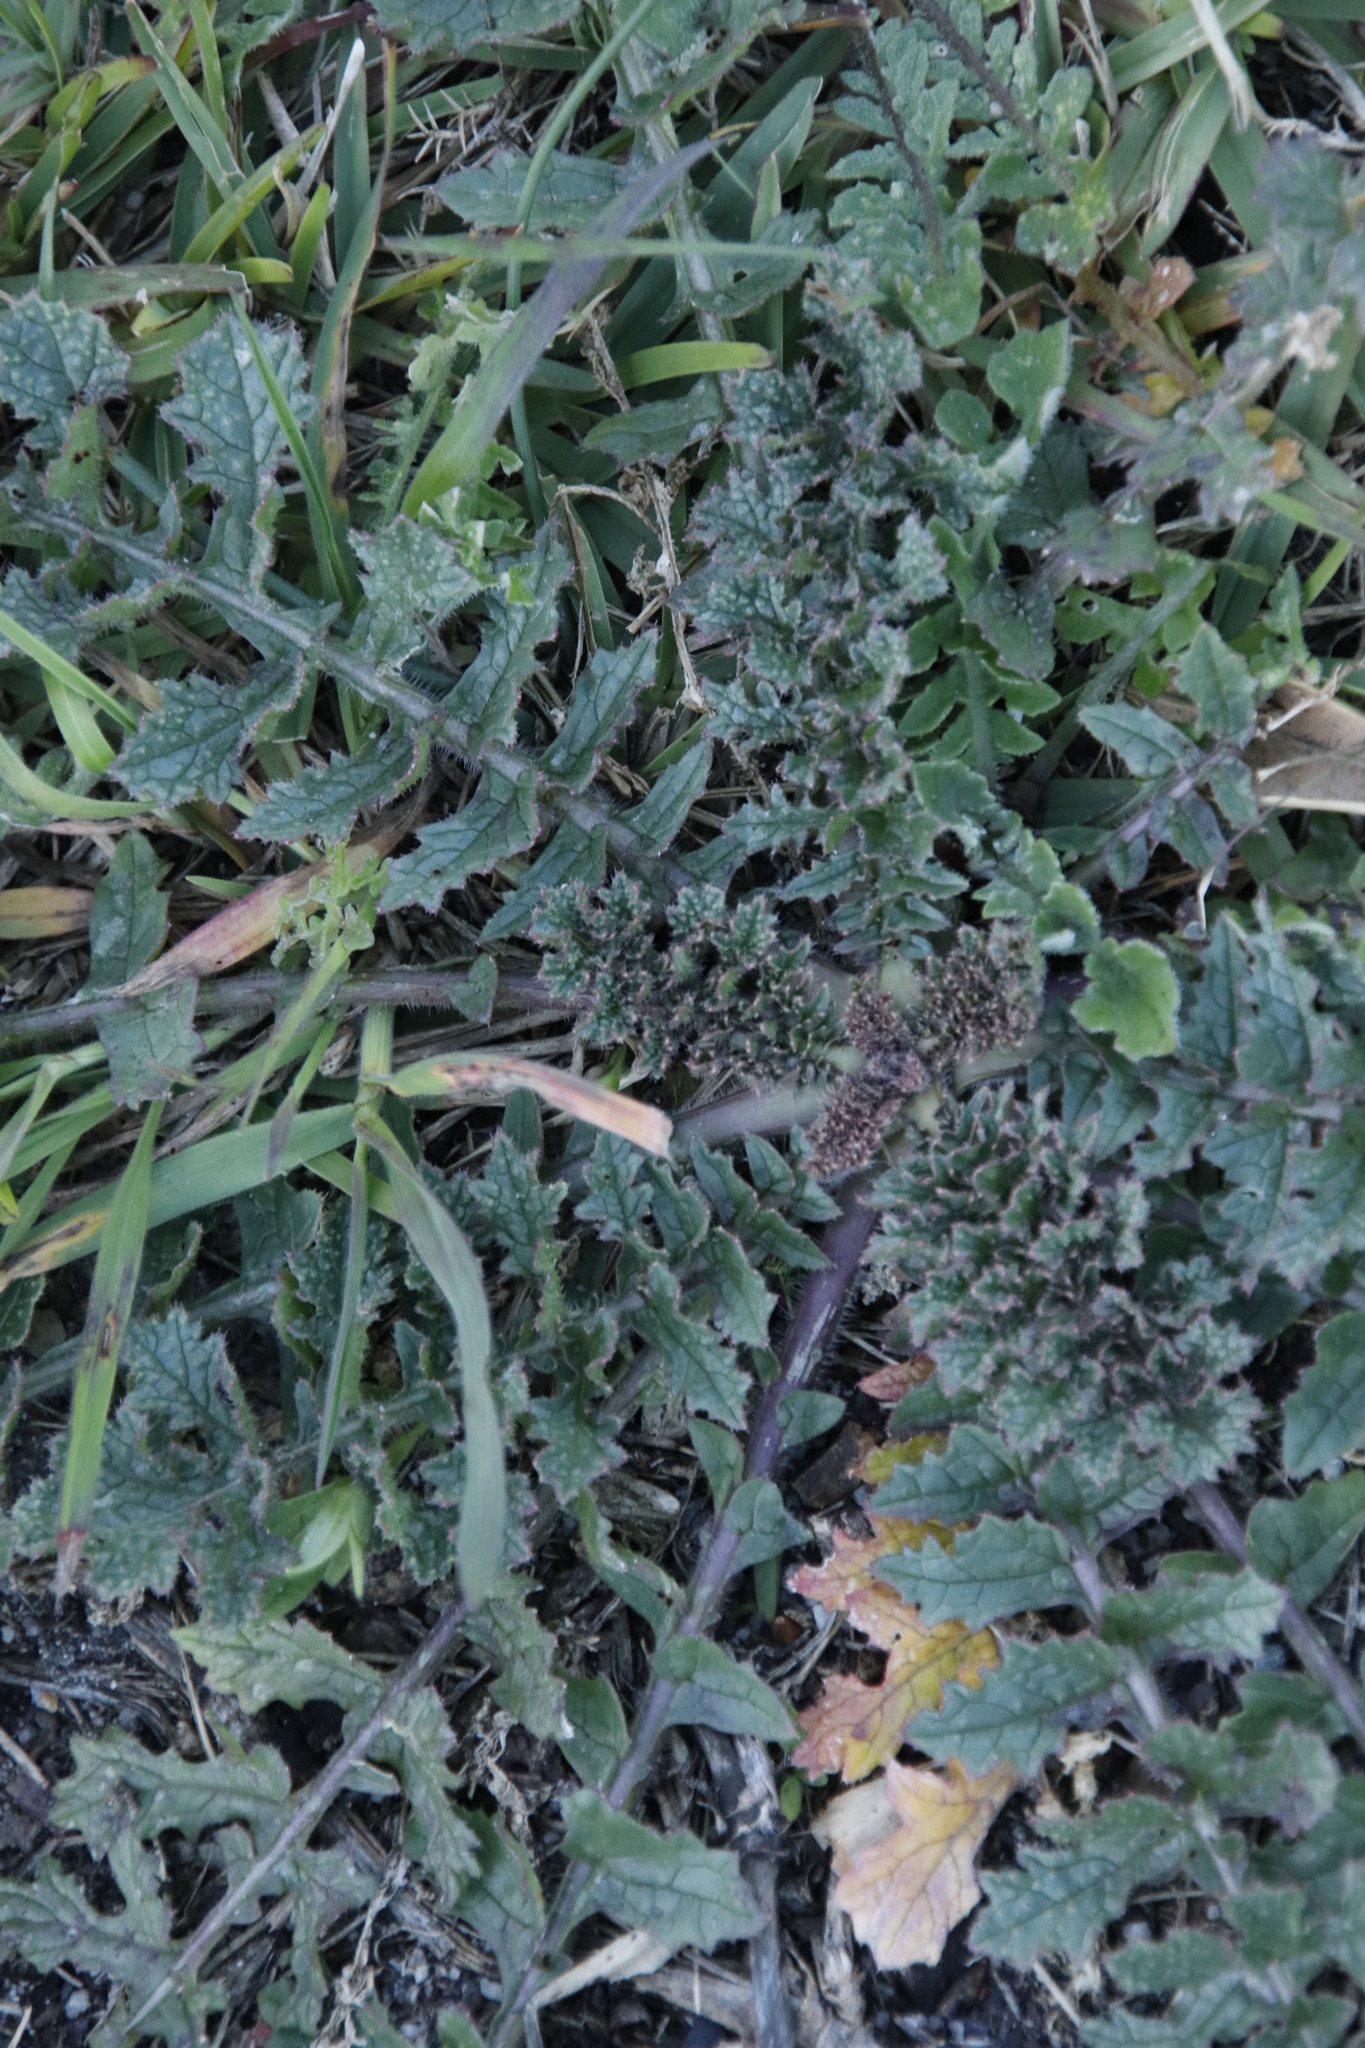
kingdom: Plantae
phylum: Tracheophyta
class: Magnoliopsida
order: Asterales
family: Asteraceae
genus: Arctotheca
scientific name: Arctotheca calendula
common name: Capeweed
